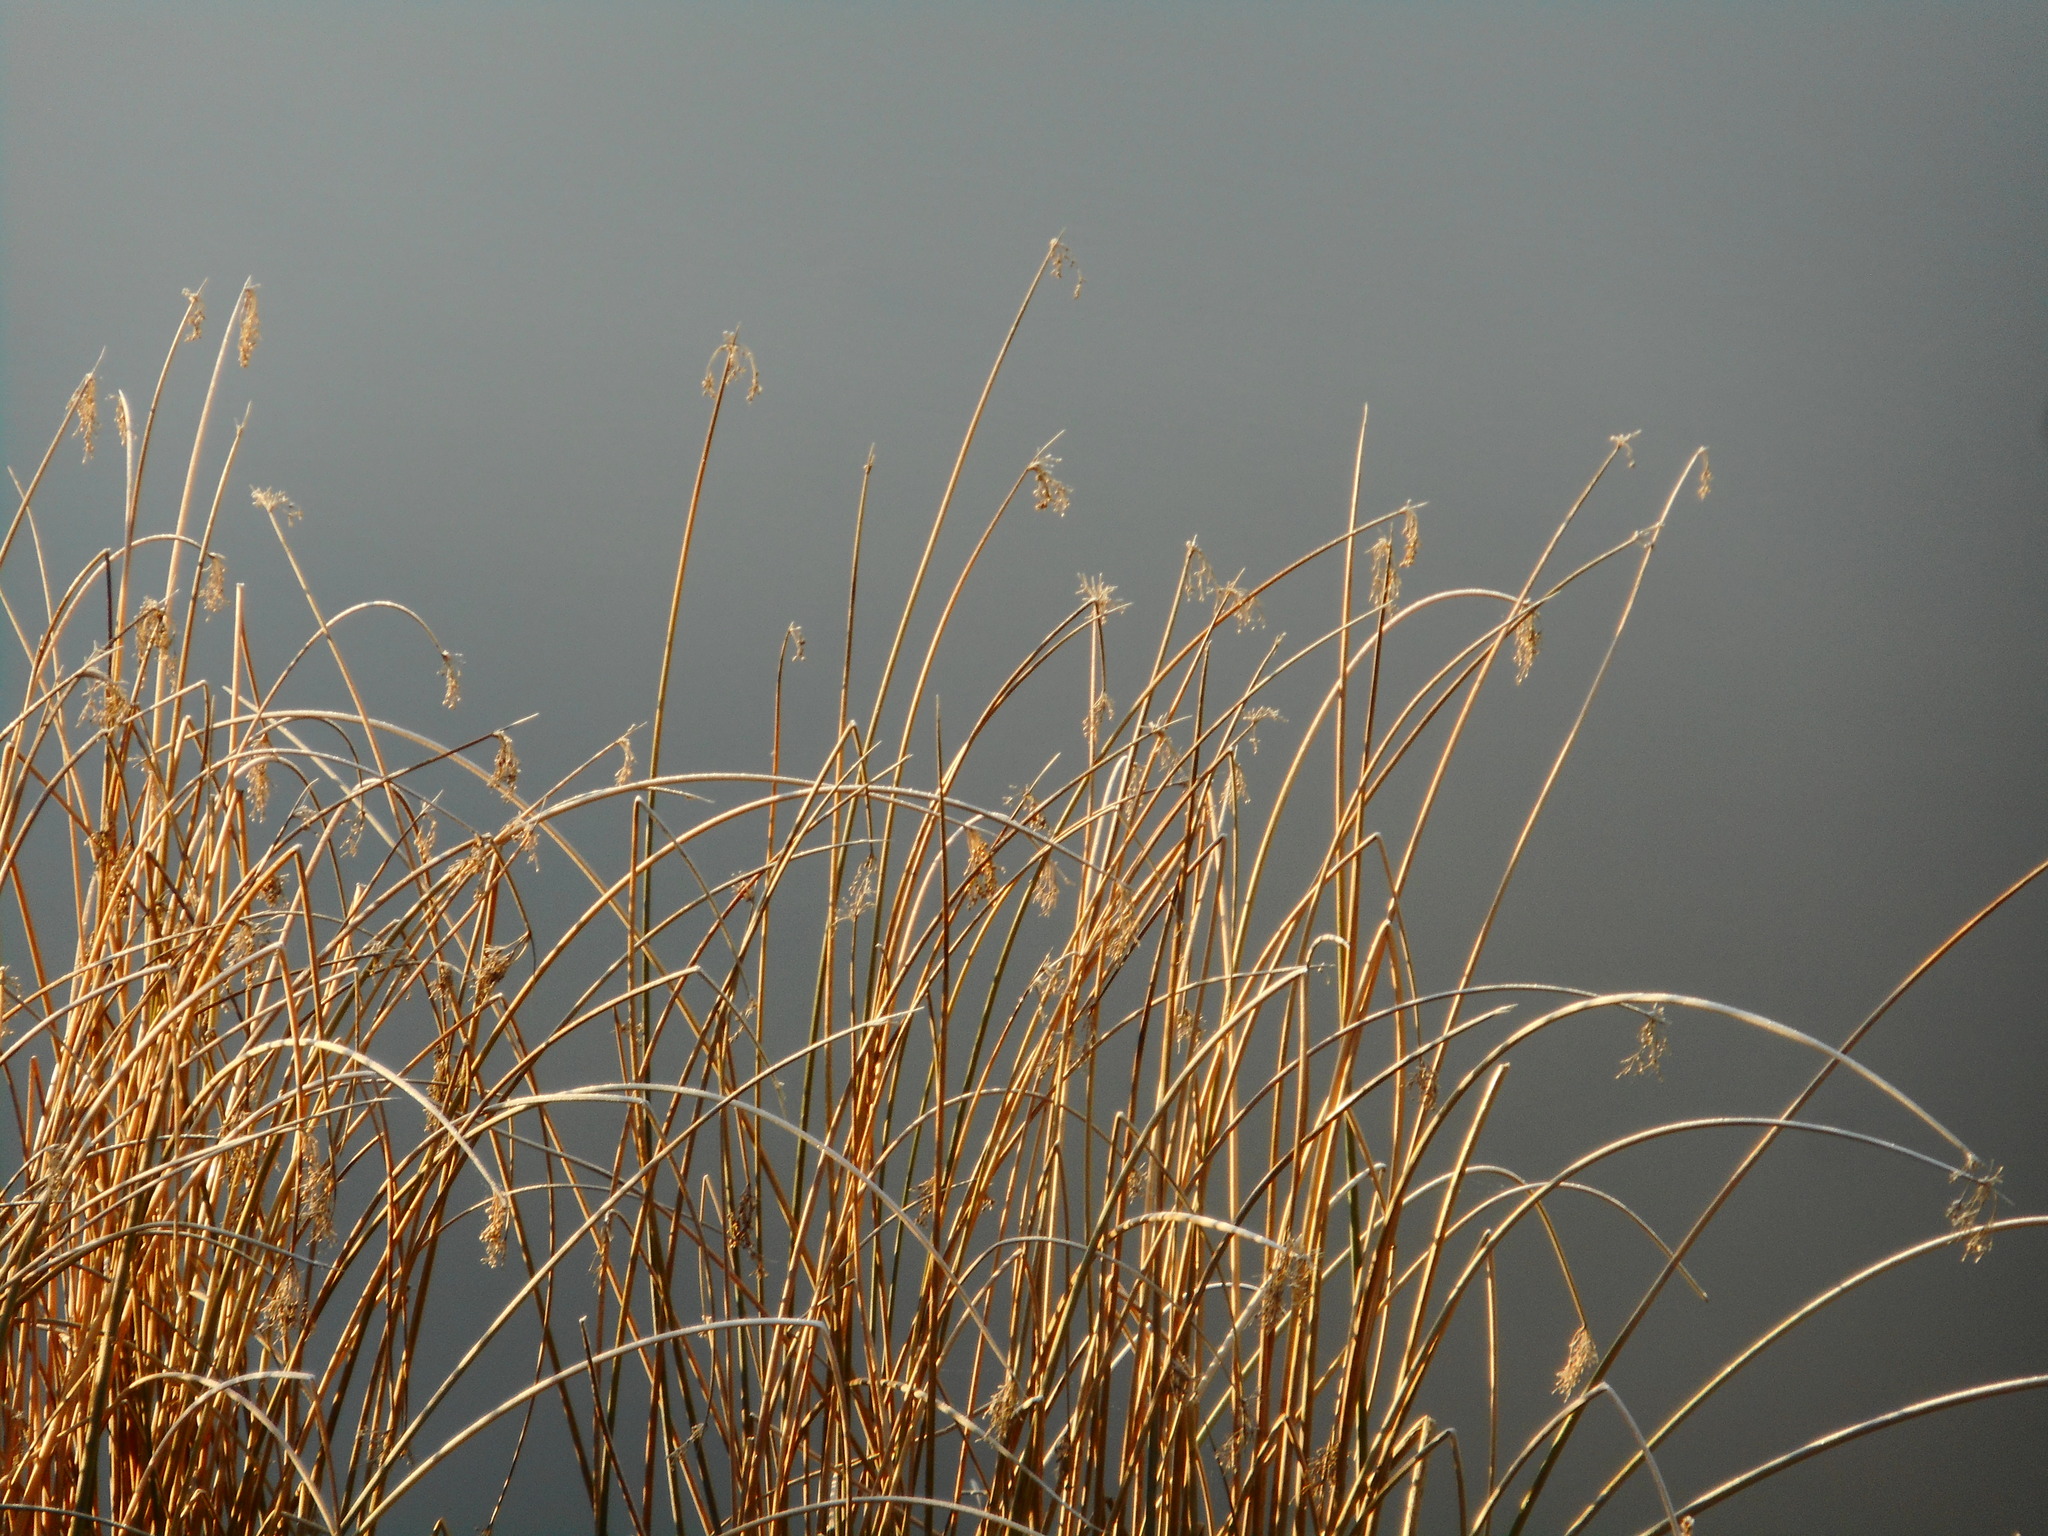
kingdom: Plantae
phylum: Tracheophyta
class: Liliopsida
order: Poales
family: Cyperaceae
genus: Schoenoplectus
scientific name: Schoenoplectus tabernaemontani
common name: Grey club-rush
